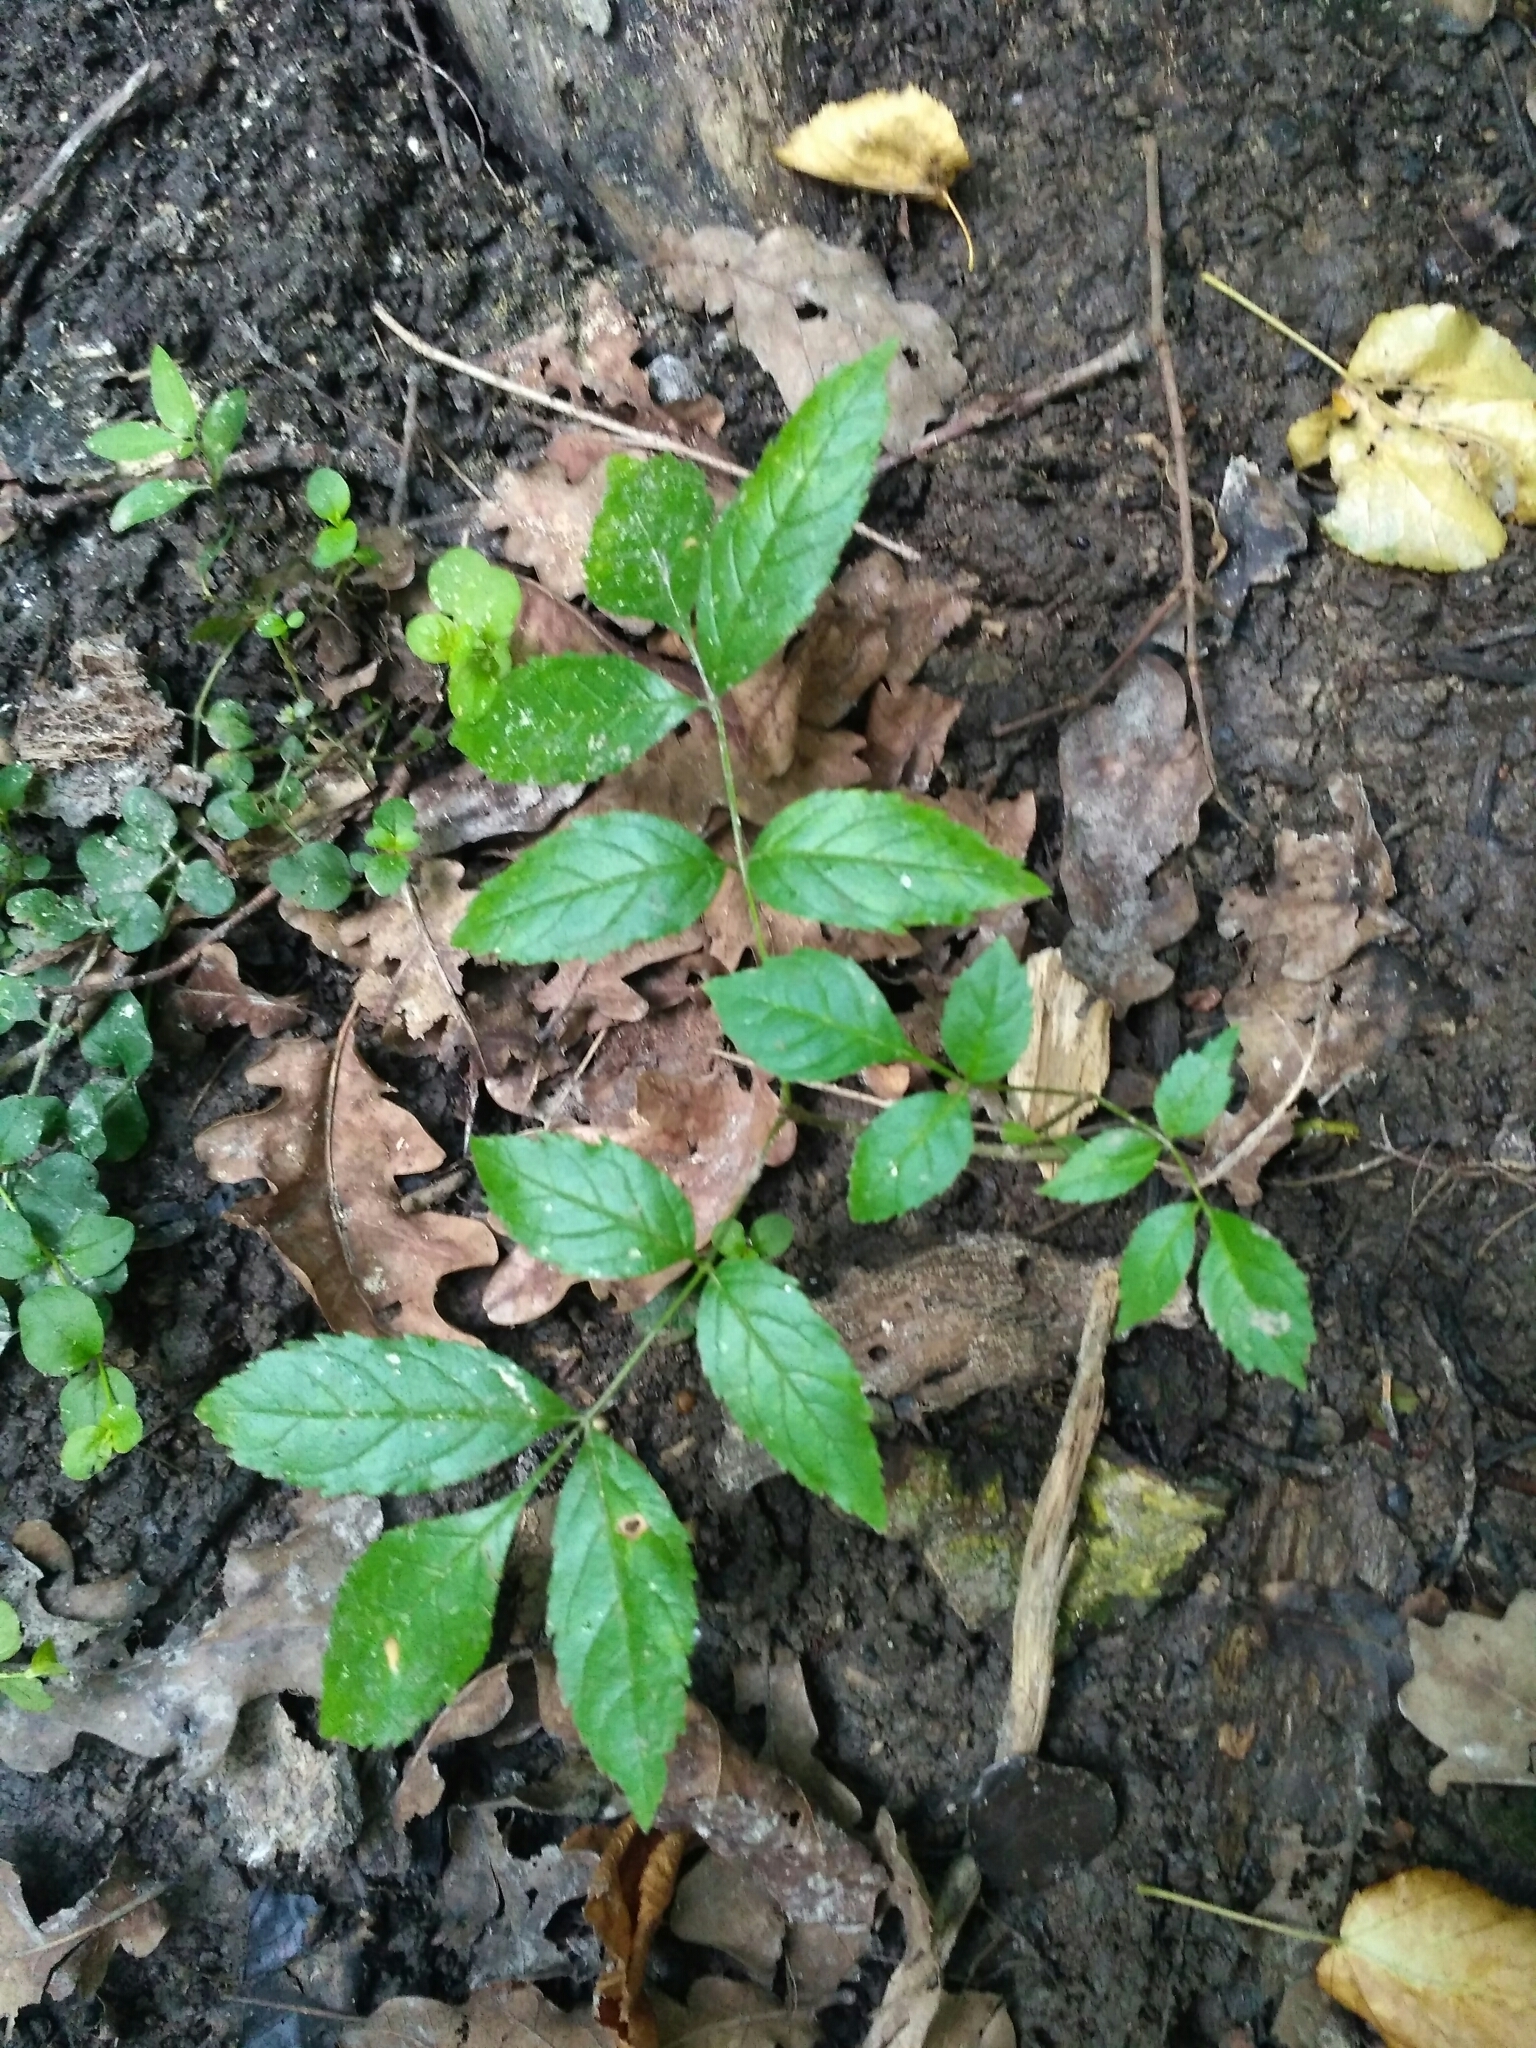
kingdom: Plantae
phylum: Tracheophyta
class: Magnoliopsida
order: Lamiales
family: Oleaceae
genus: Fraxinus
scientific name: Fraxinus excelsior
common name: European ash
